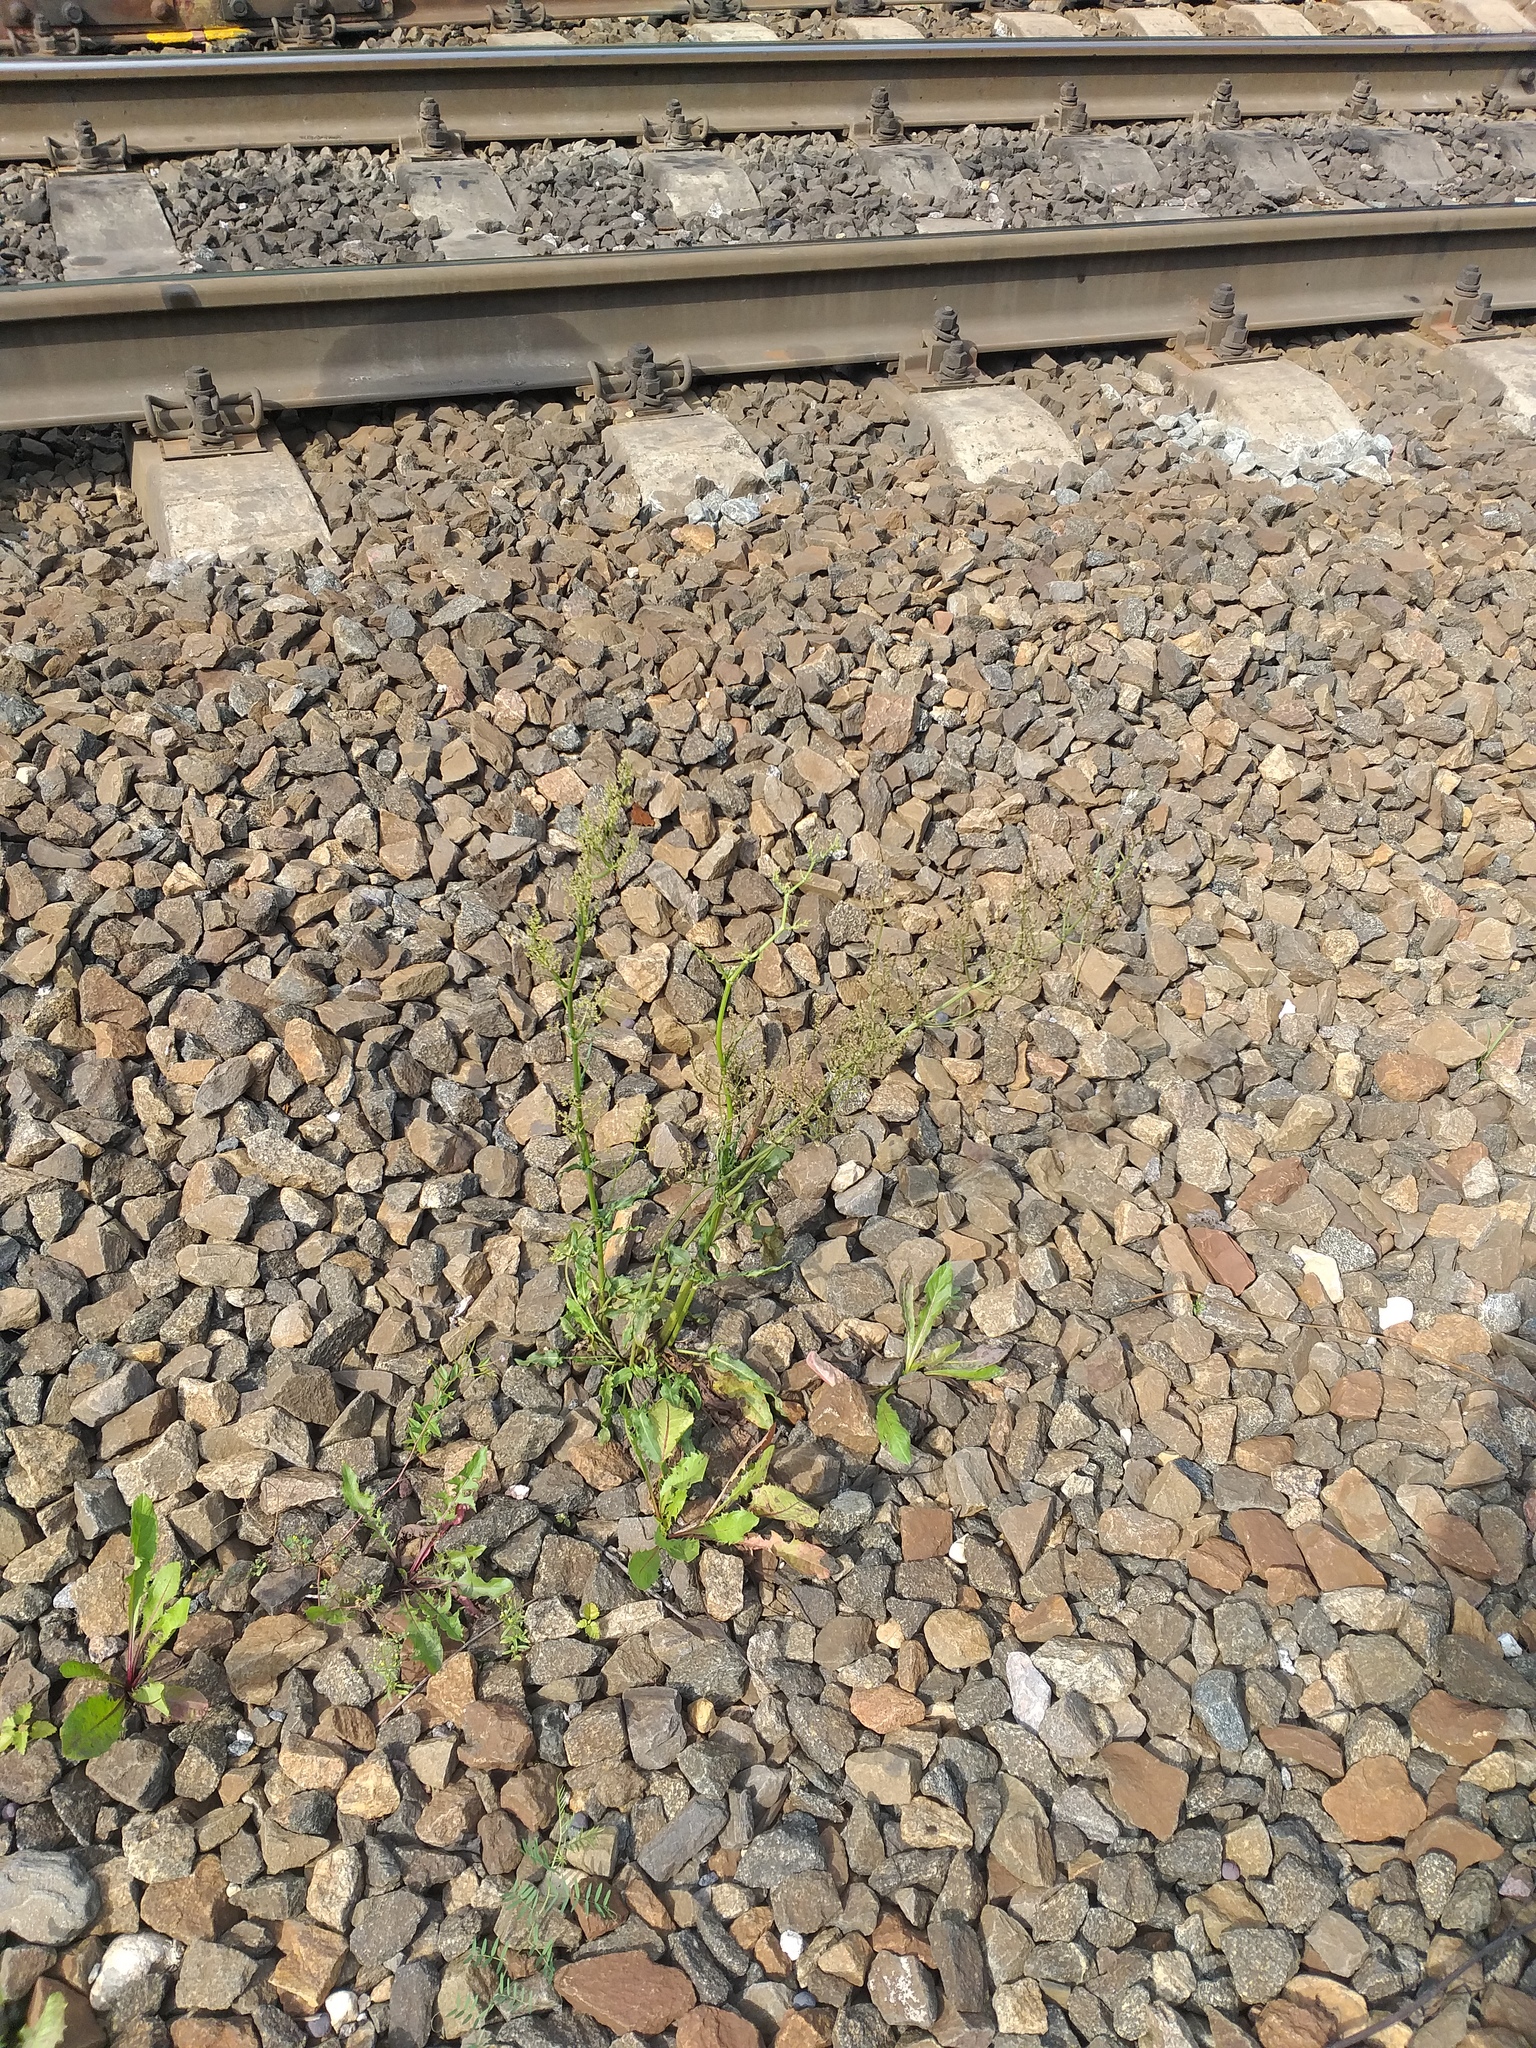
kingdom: Plantae
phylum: Tracheophyta
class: Magnoliopsida
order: Caryophyllales
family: Polygonaceae
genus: Rumex
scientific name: Rumex thyrsiflorus
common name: Garden sorrel
